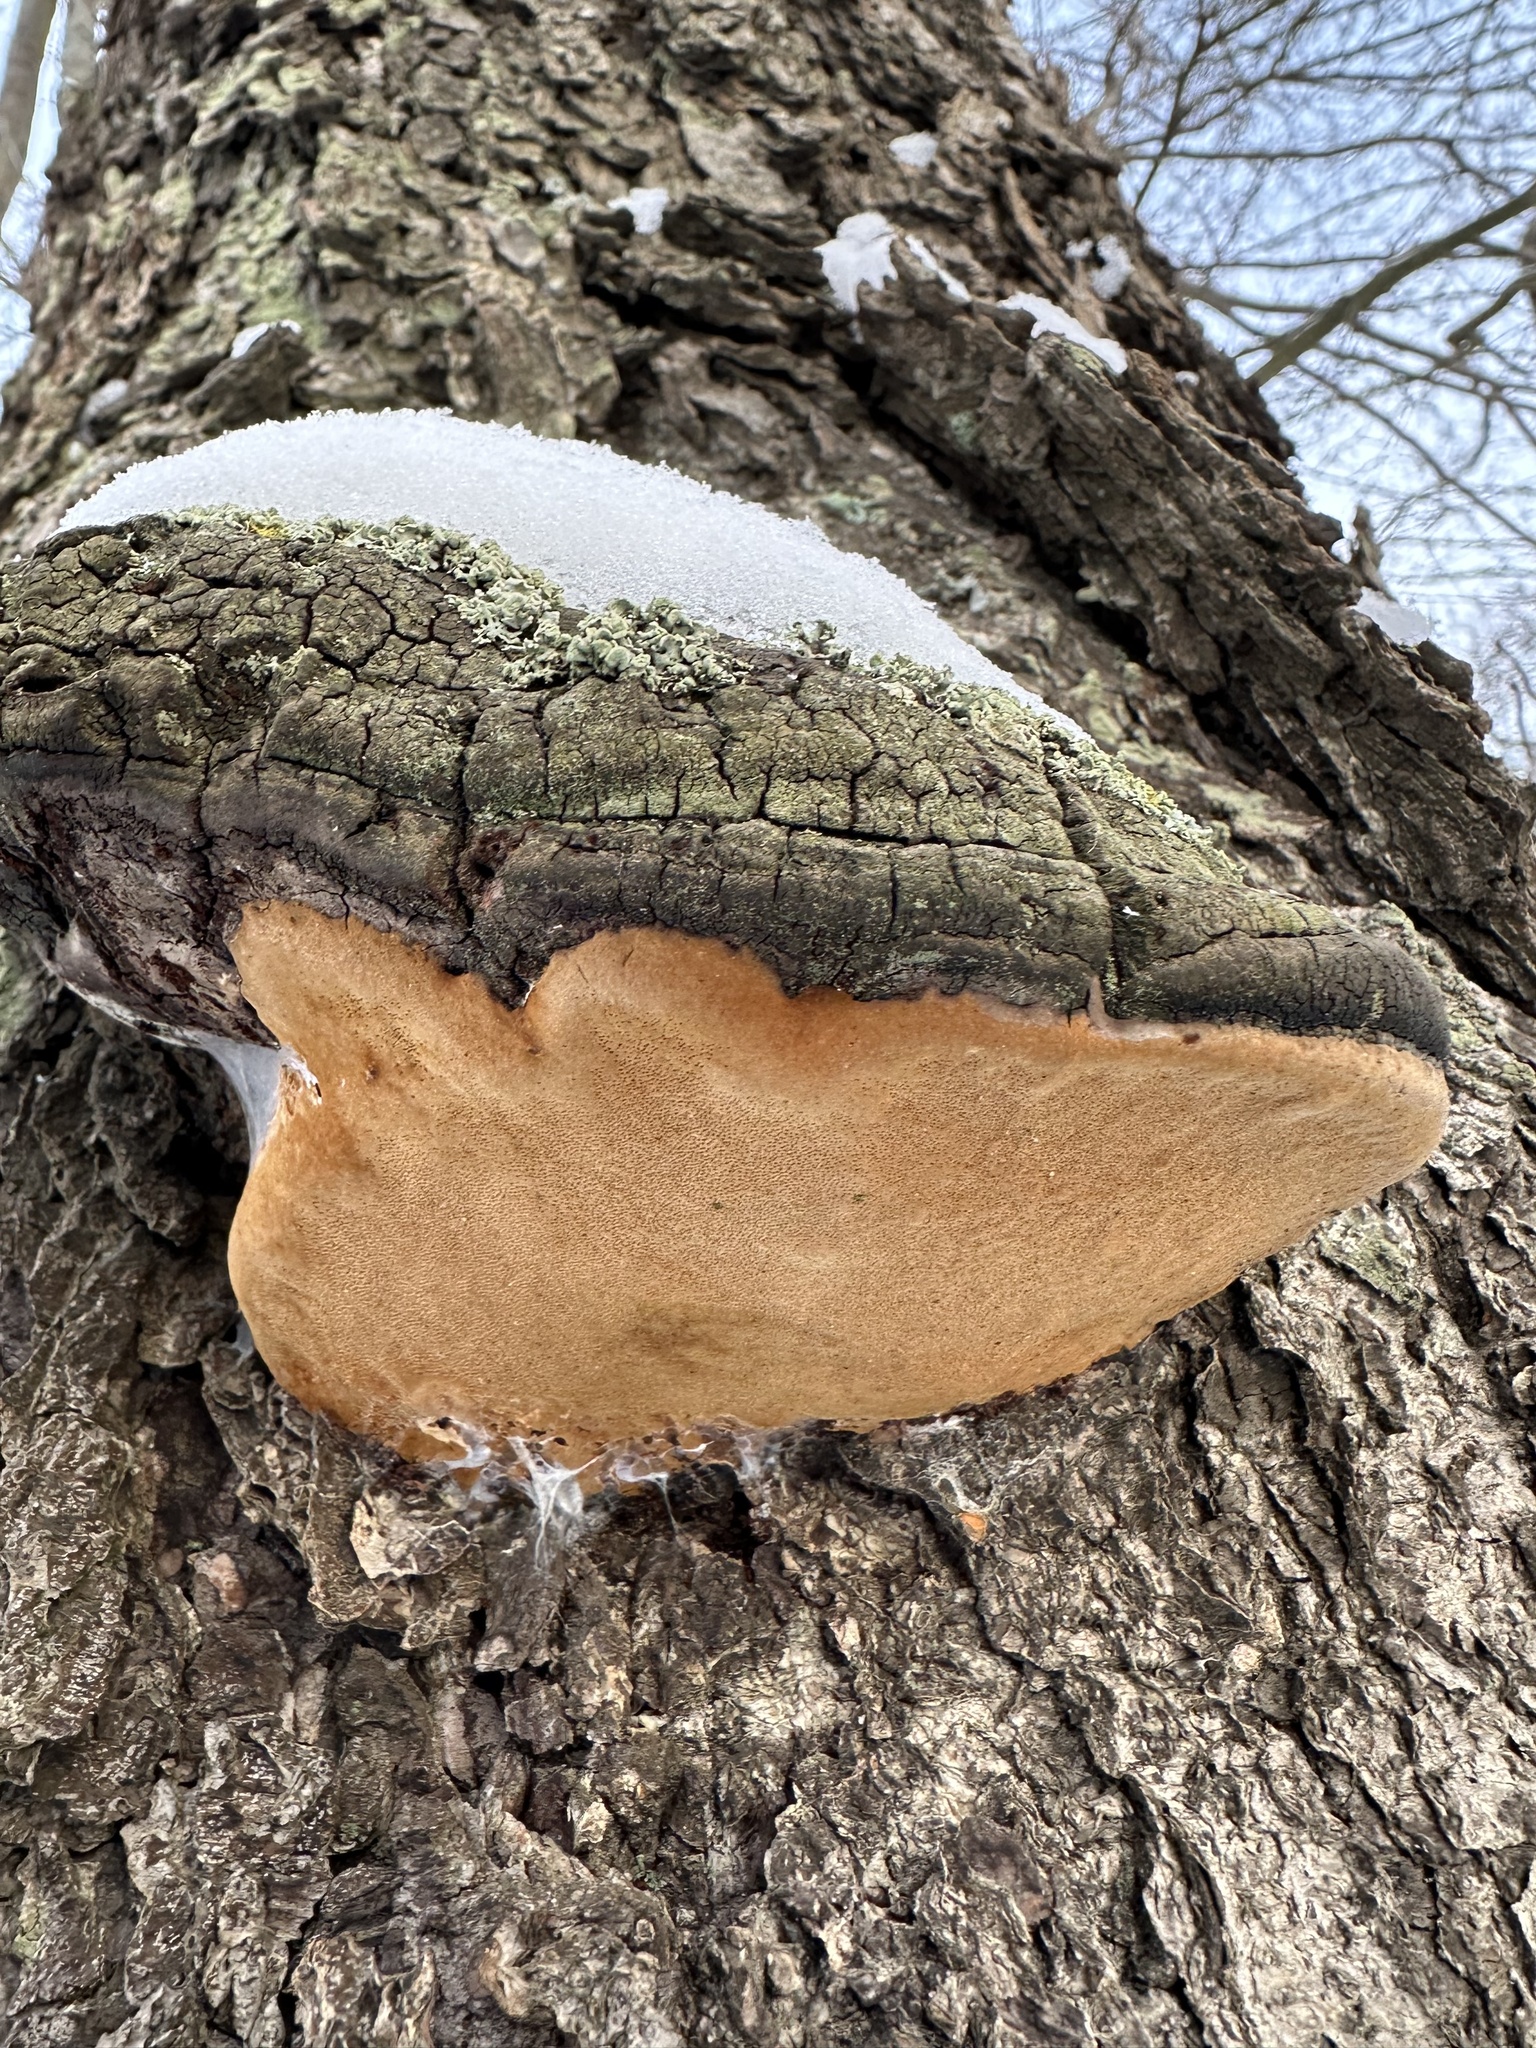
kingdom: Fungi
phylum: Basidiomycota
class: Agaricomycetes
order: Hymenochaetales
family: Hymenochaetaceae
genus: Phellinus
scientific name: Phellinus igniarius
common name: Willow bracket
